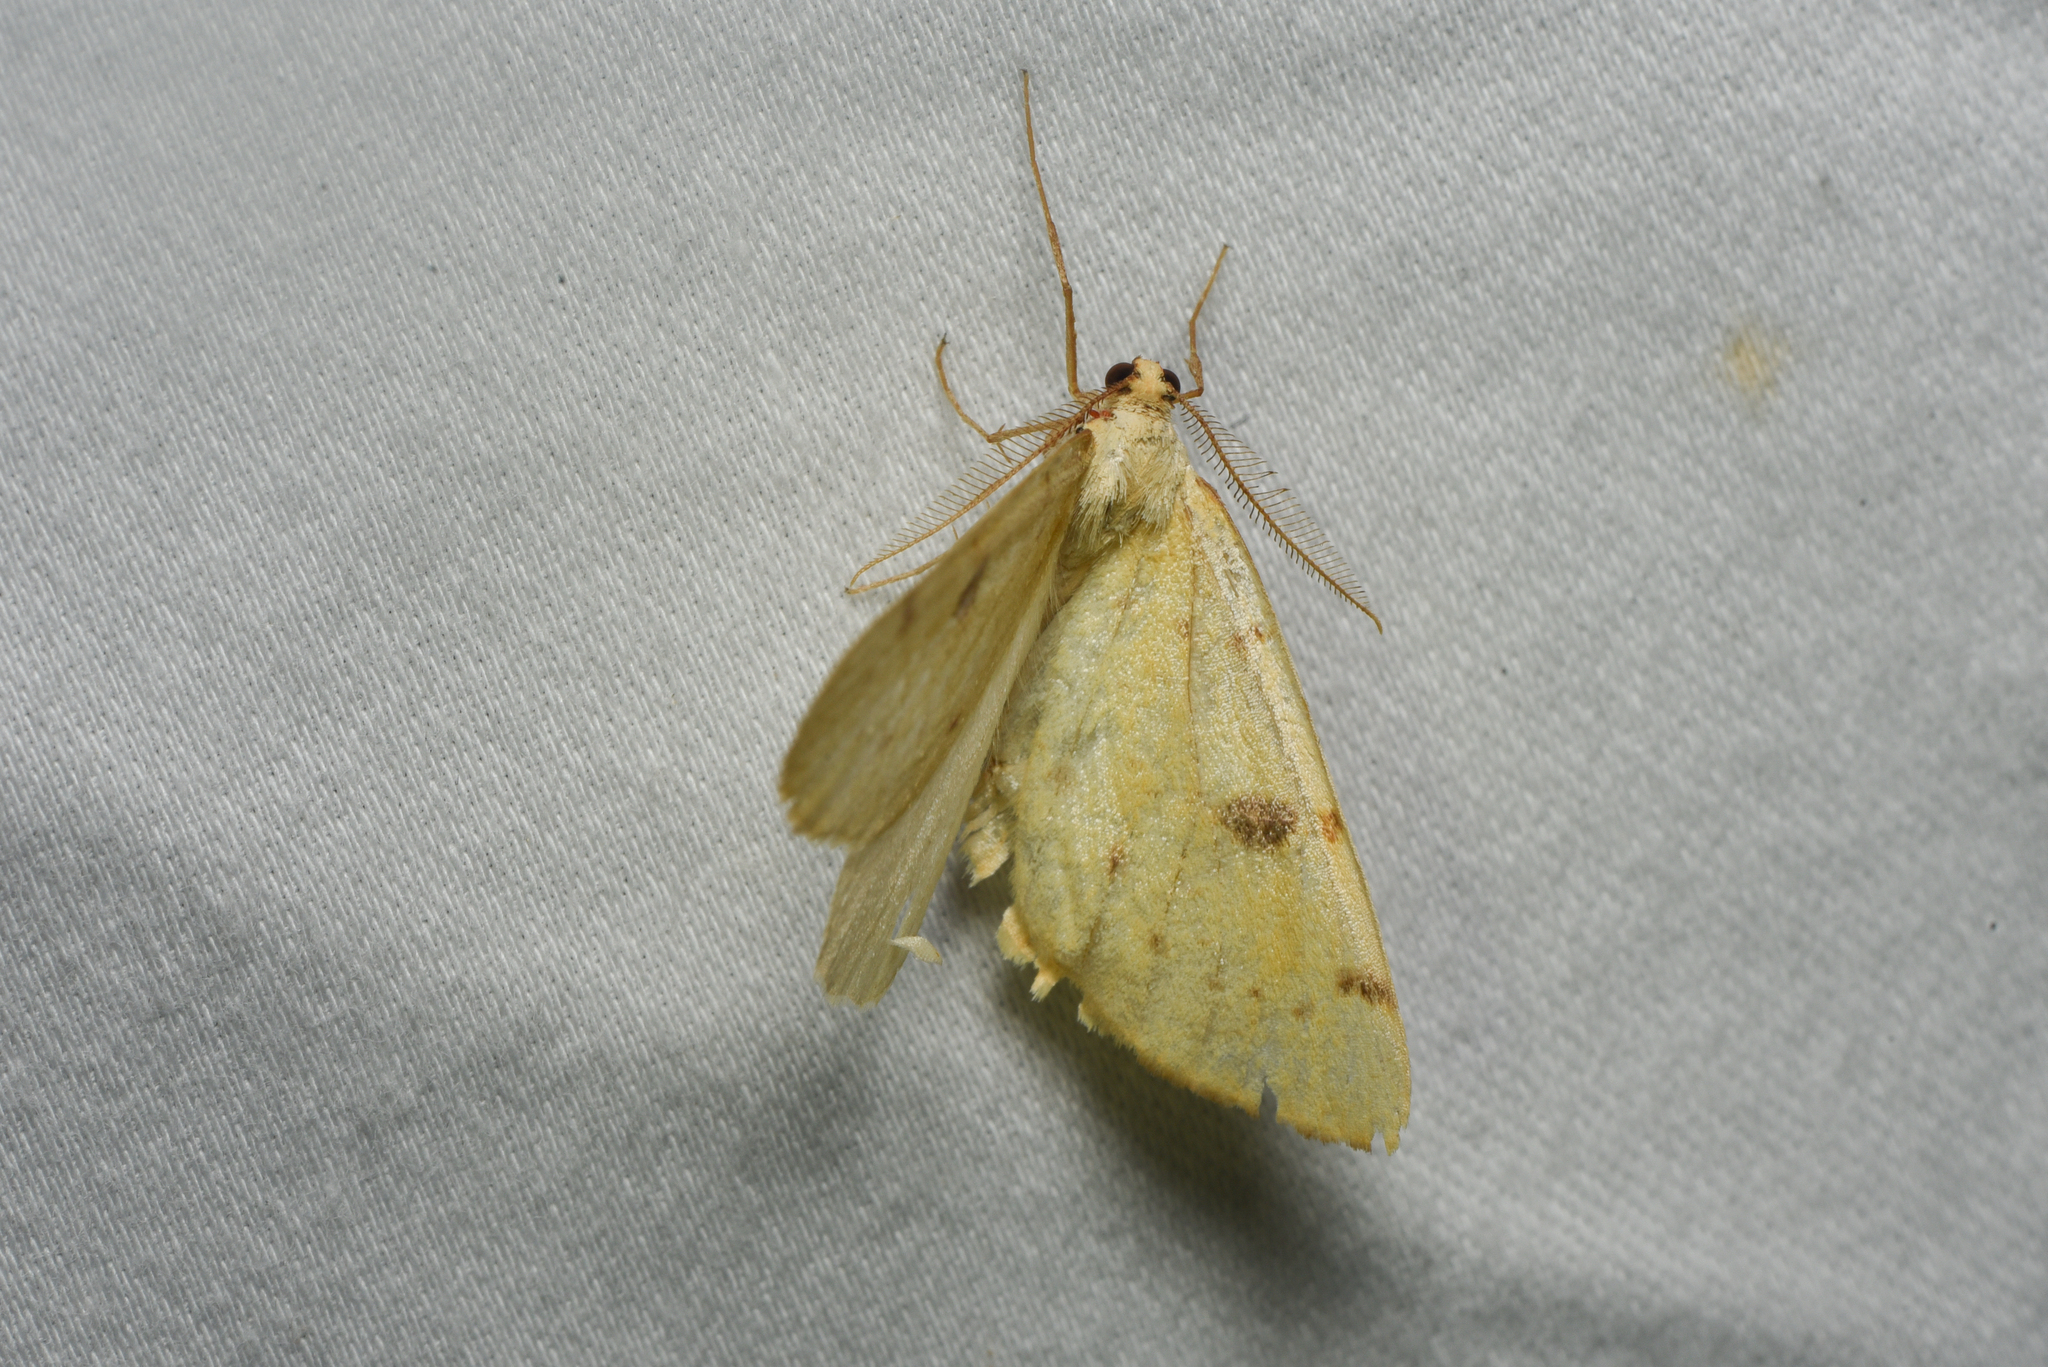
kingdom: Animalia
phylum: Arthropoda
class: Insecta
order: Lepidoptera
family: Geometridae
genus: Hesperumia
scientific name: Hesperumia sulphuraria
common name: Sulphur moth
